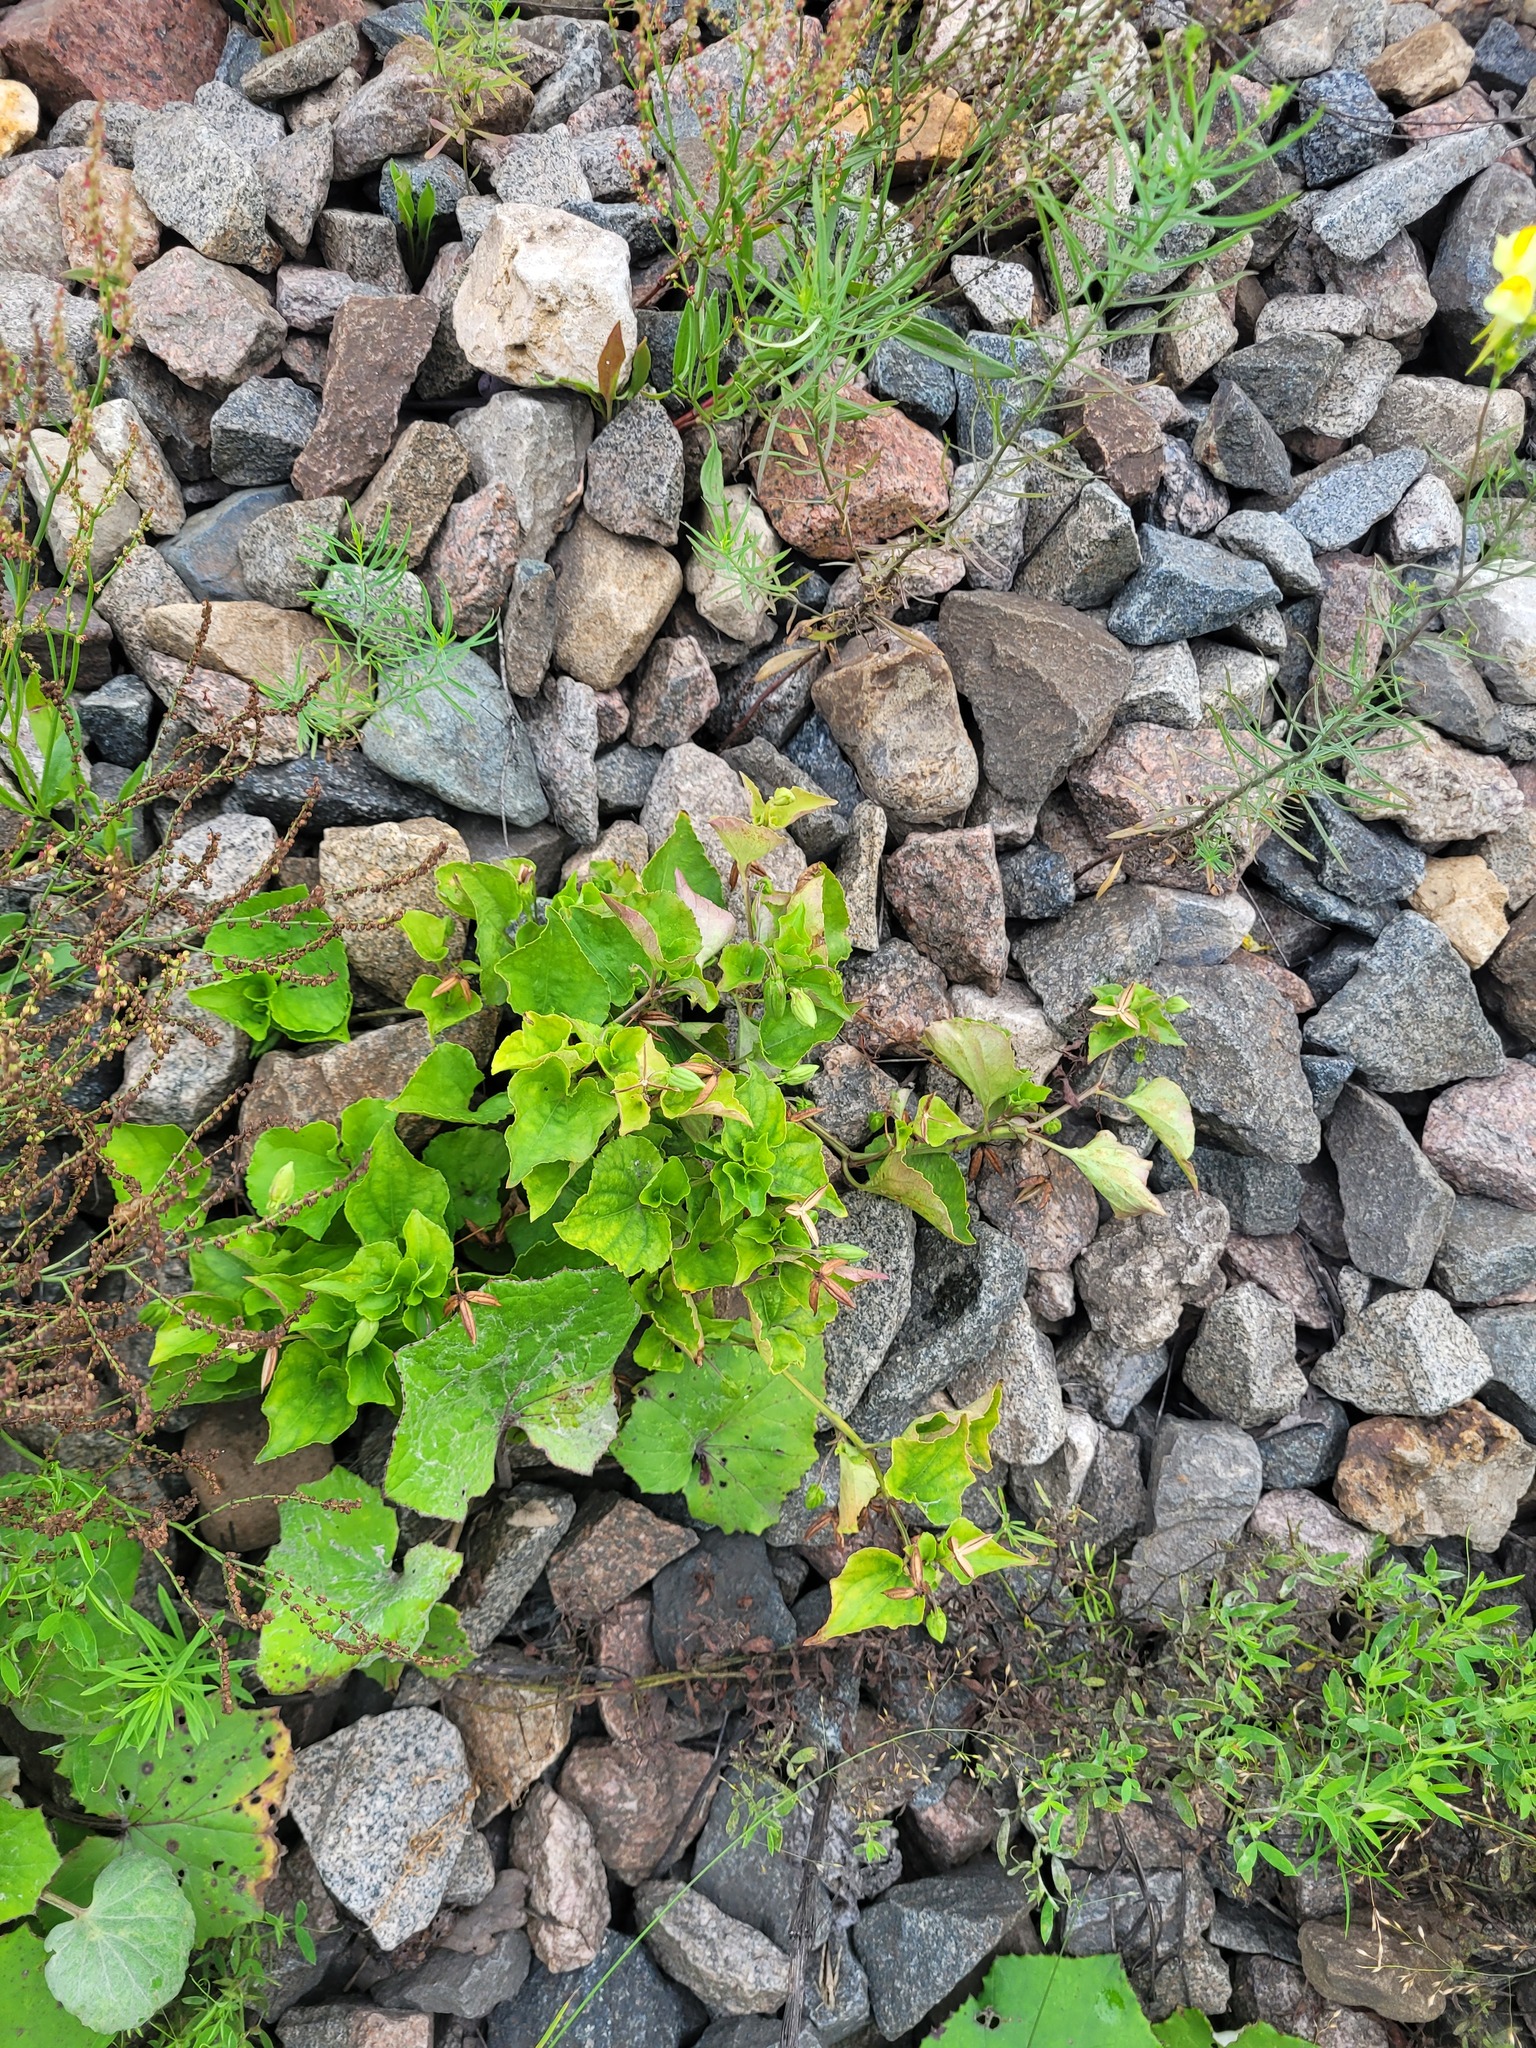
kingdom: Plantae
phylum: Tracheophyta
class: Magnoliopsida
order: Malpighiales
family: Violaceae
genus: Viola
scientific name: Viola riviniana
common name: Common dog-violet
